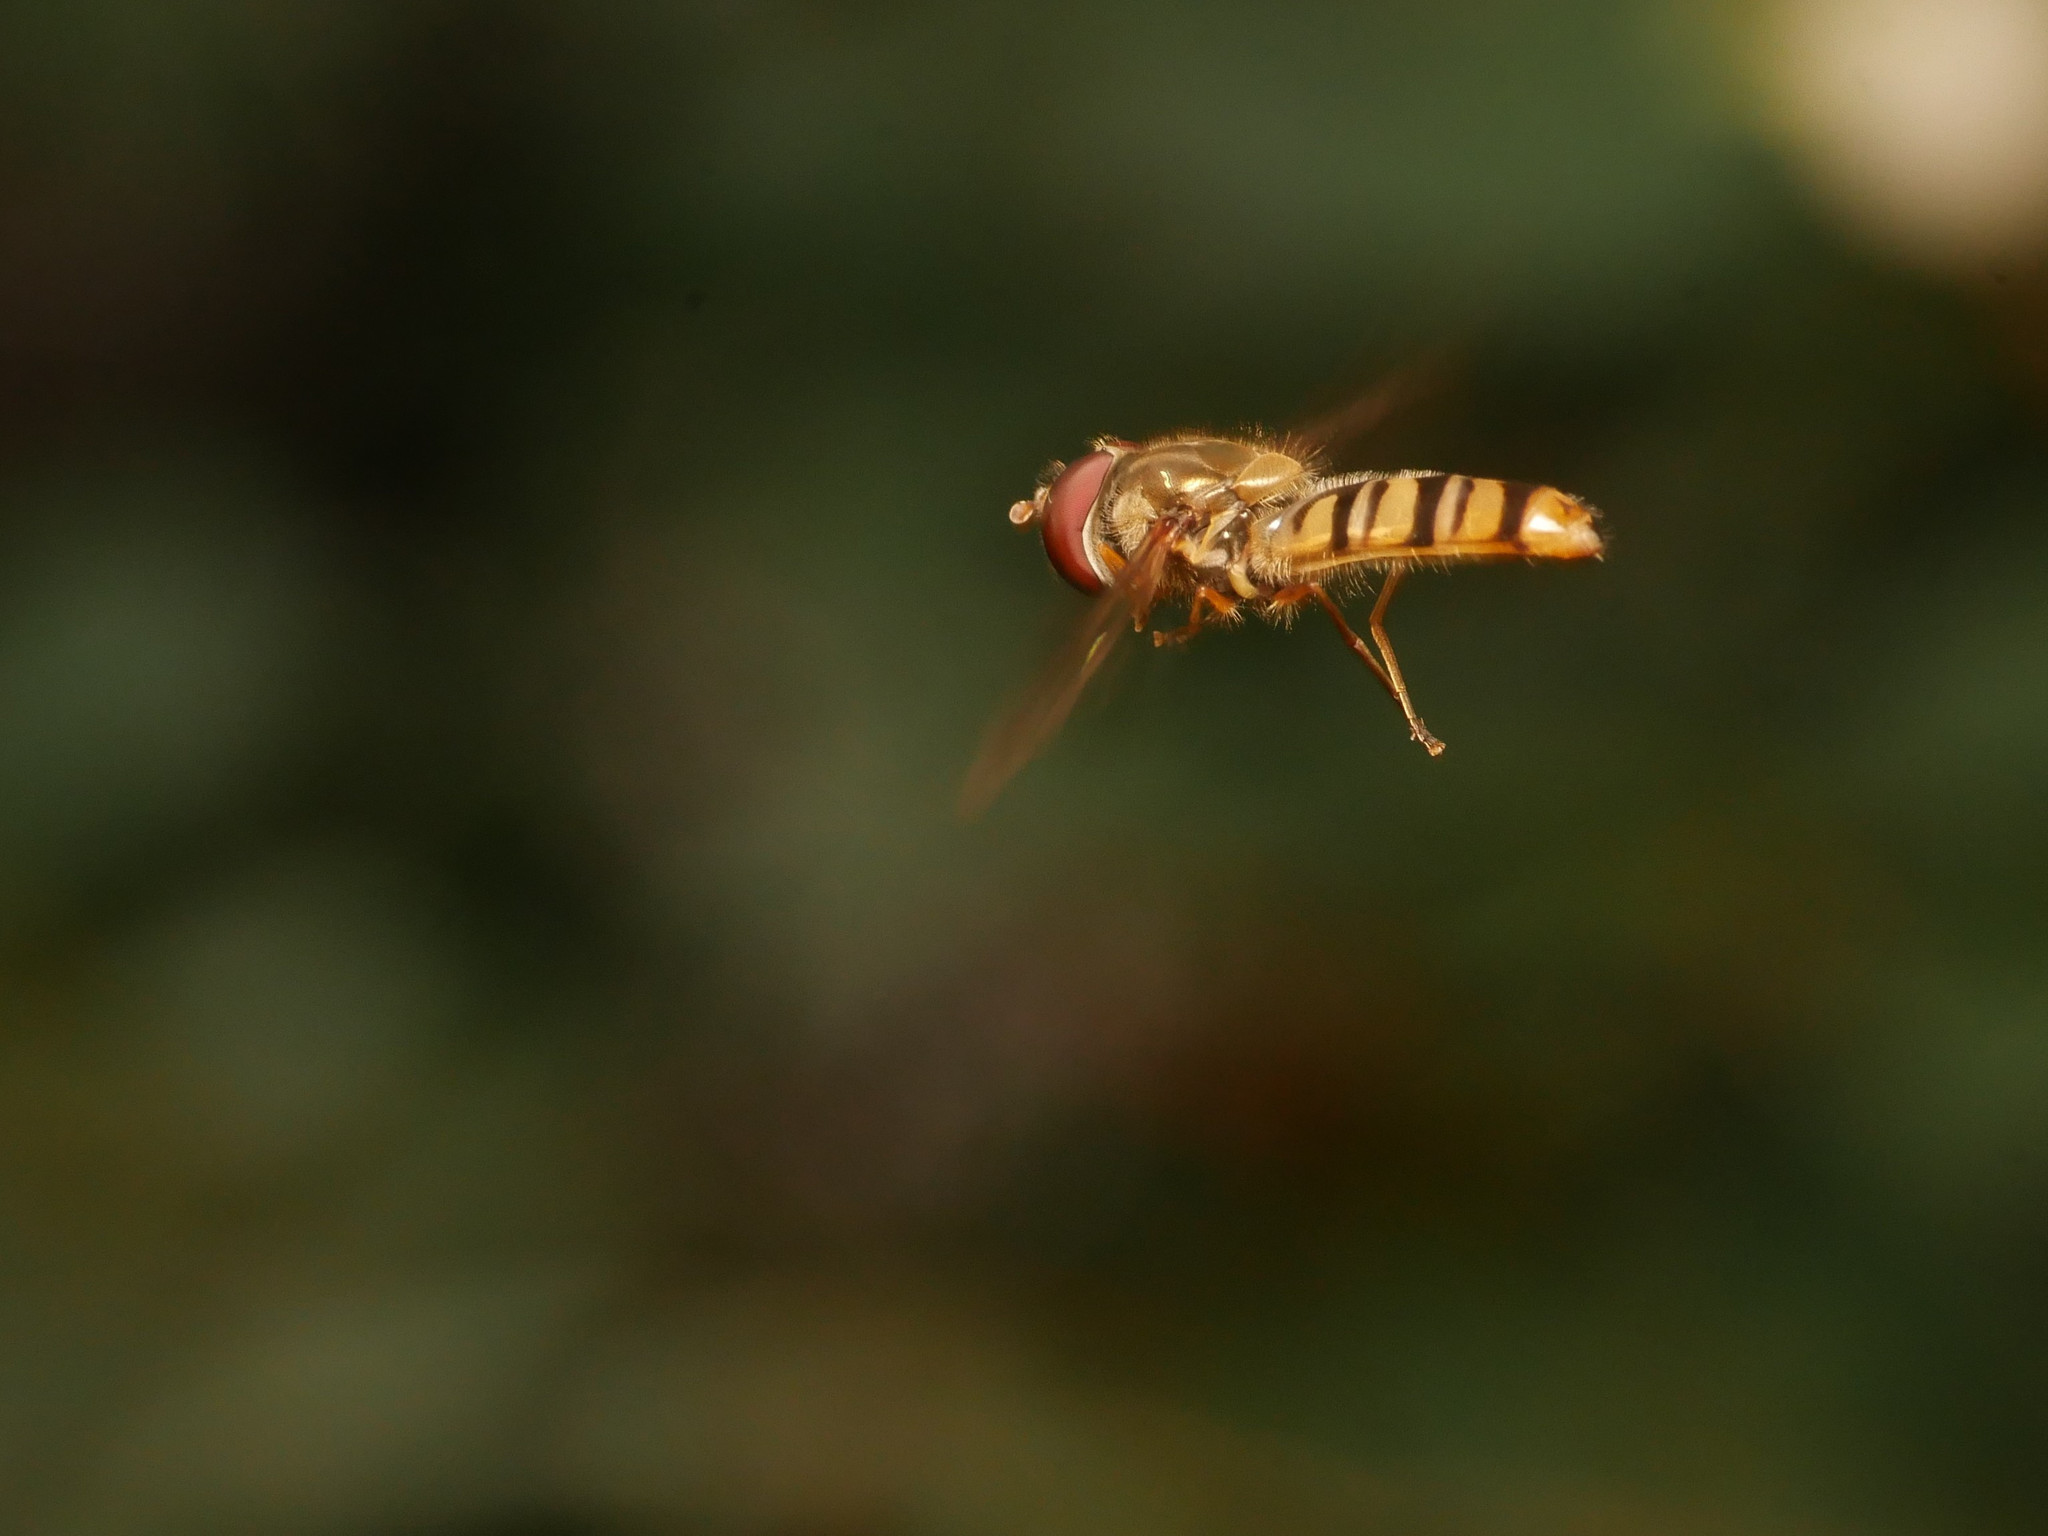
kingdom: Animalia
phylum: Arthropoda
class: Insecta
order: Diptera
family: Syrphidae
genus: Episyrphus
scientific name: Episyrphus balteatus
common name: Marmalade hoverfly
